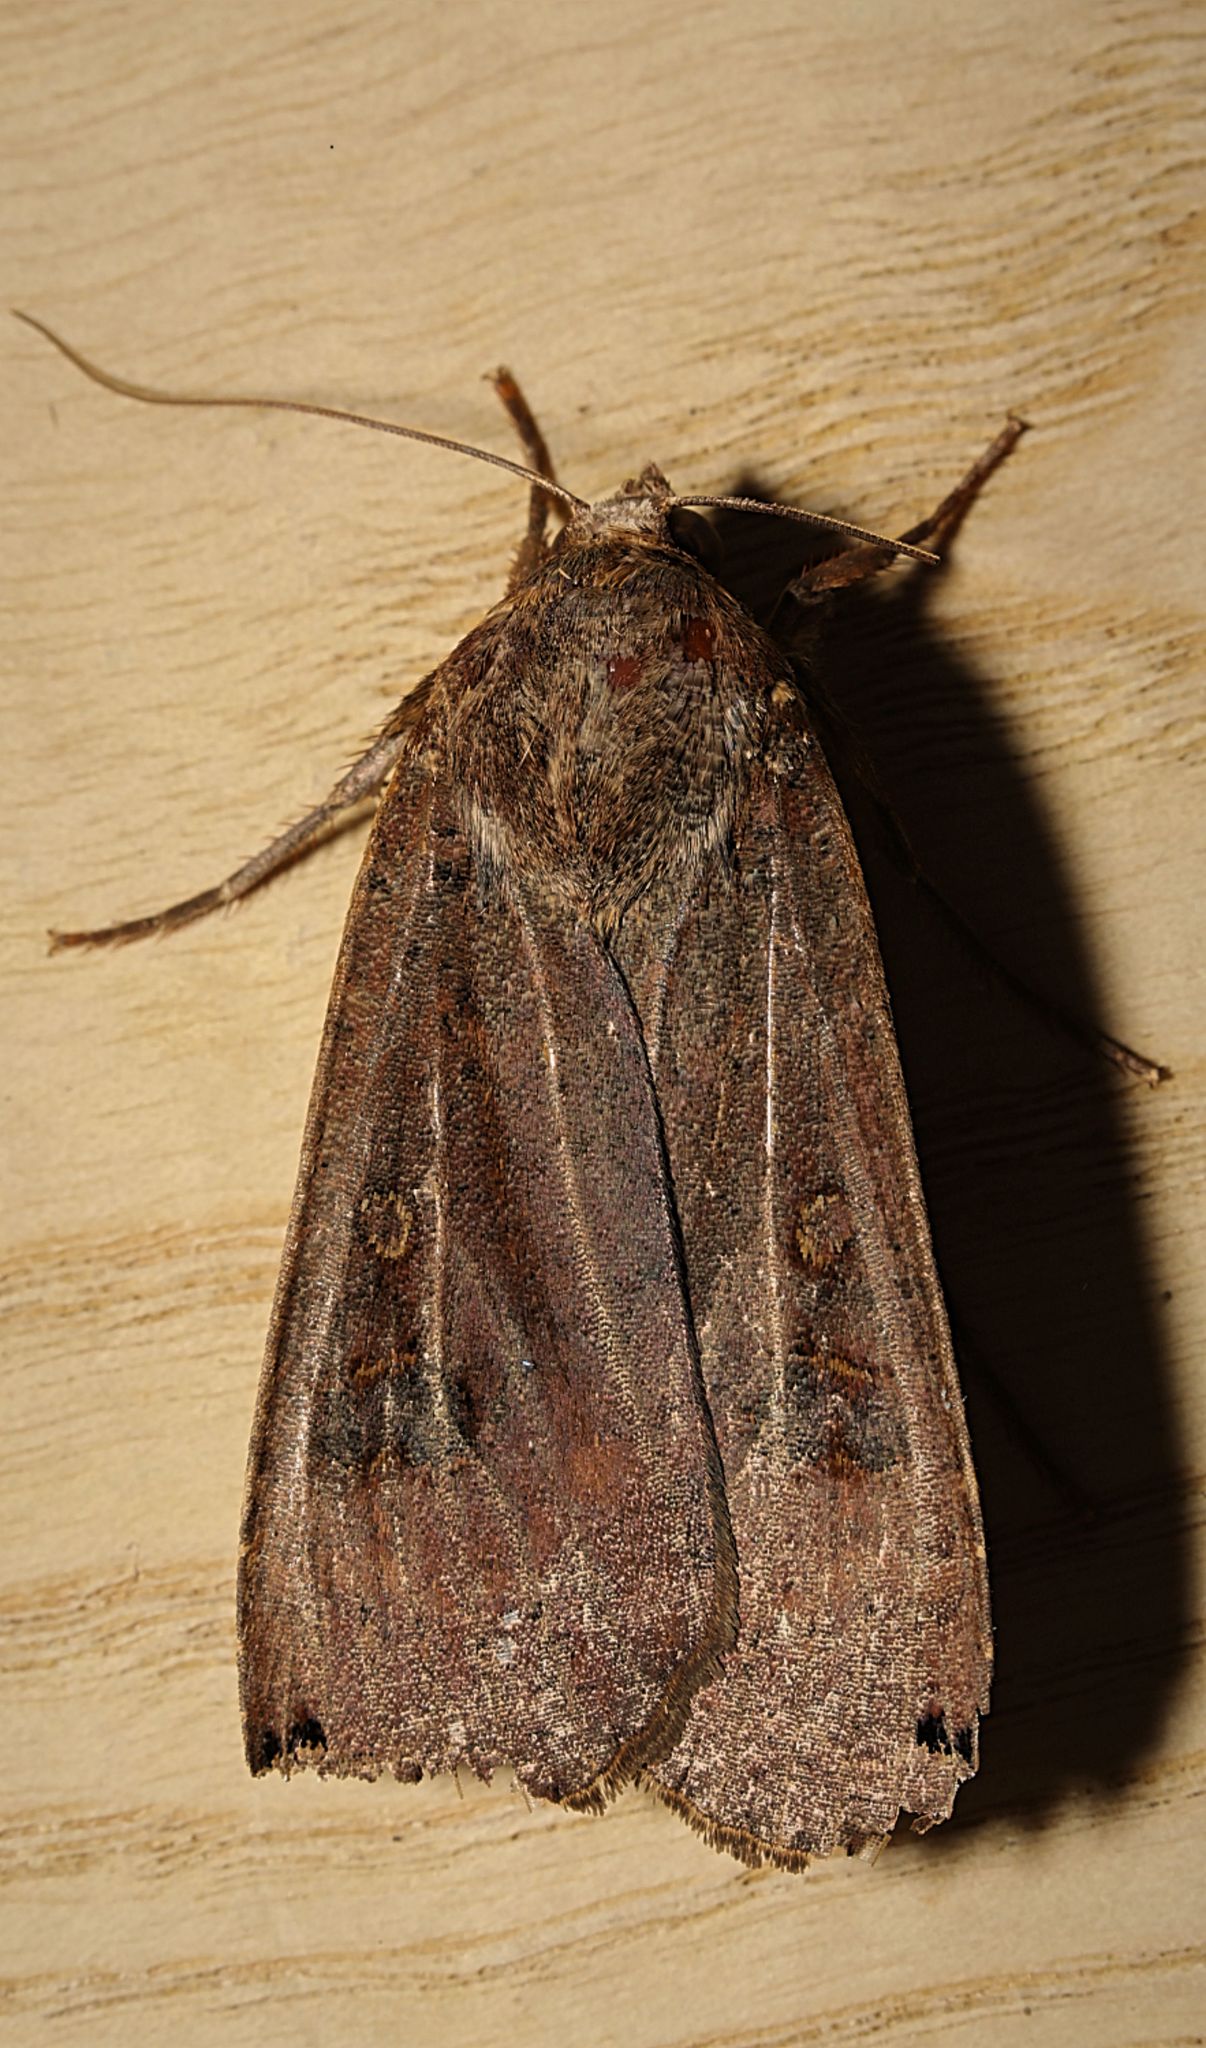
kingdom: Animalia
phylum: Arthropoda
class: Insecta
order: Lepidoptera
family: Noctuidae
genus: Noctua
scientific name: Noctua pronuba
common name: Large yellow underwing
